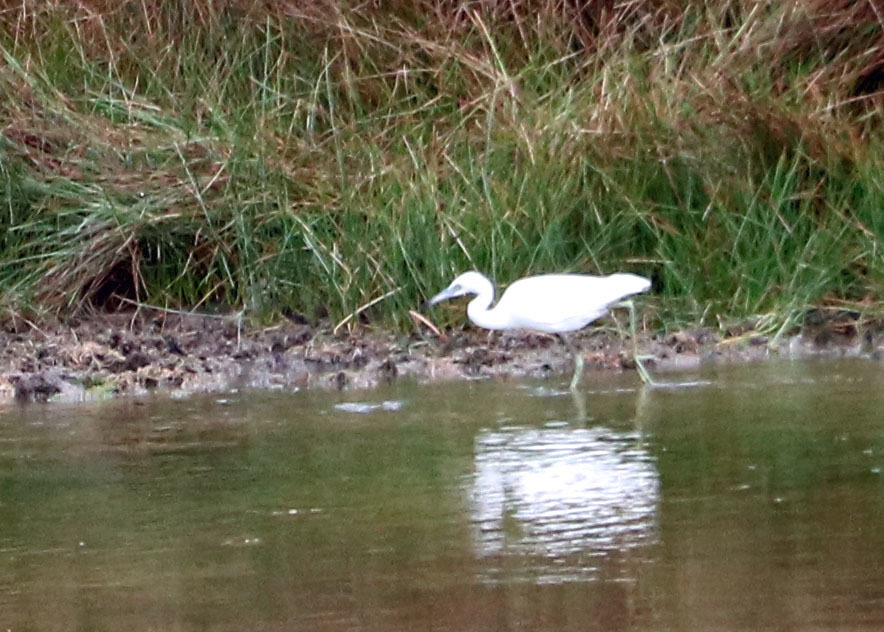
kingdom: Animalia
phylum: Chordata
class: Aves
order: Pelecaniformes
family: Ardeidae
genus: Egretta
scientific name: Egretta caerulea
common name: Little blue heron
